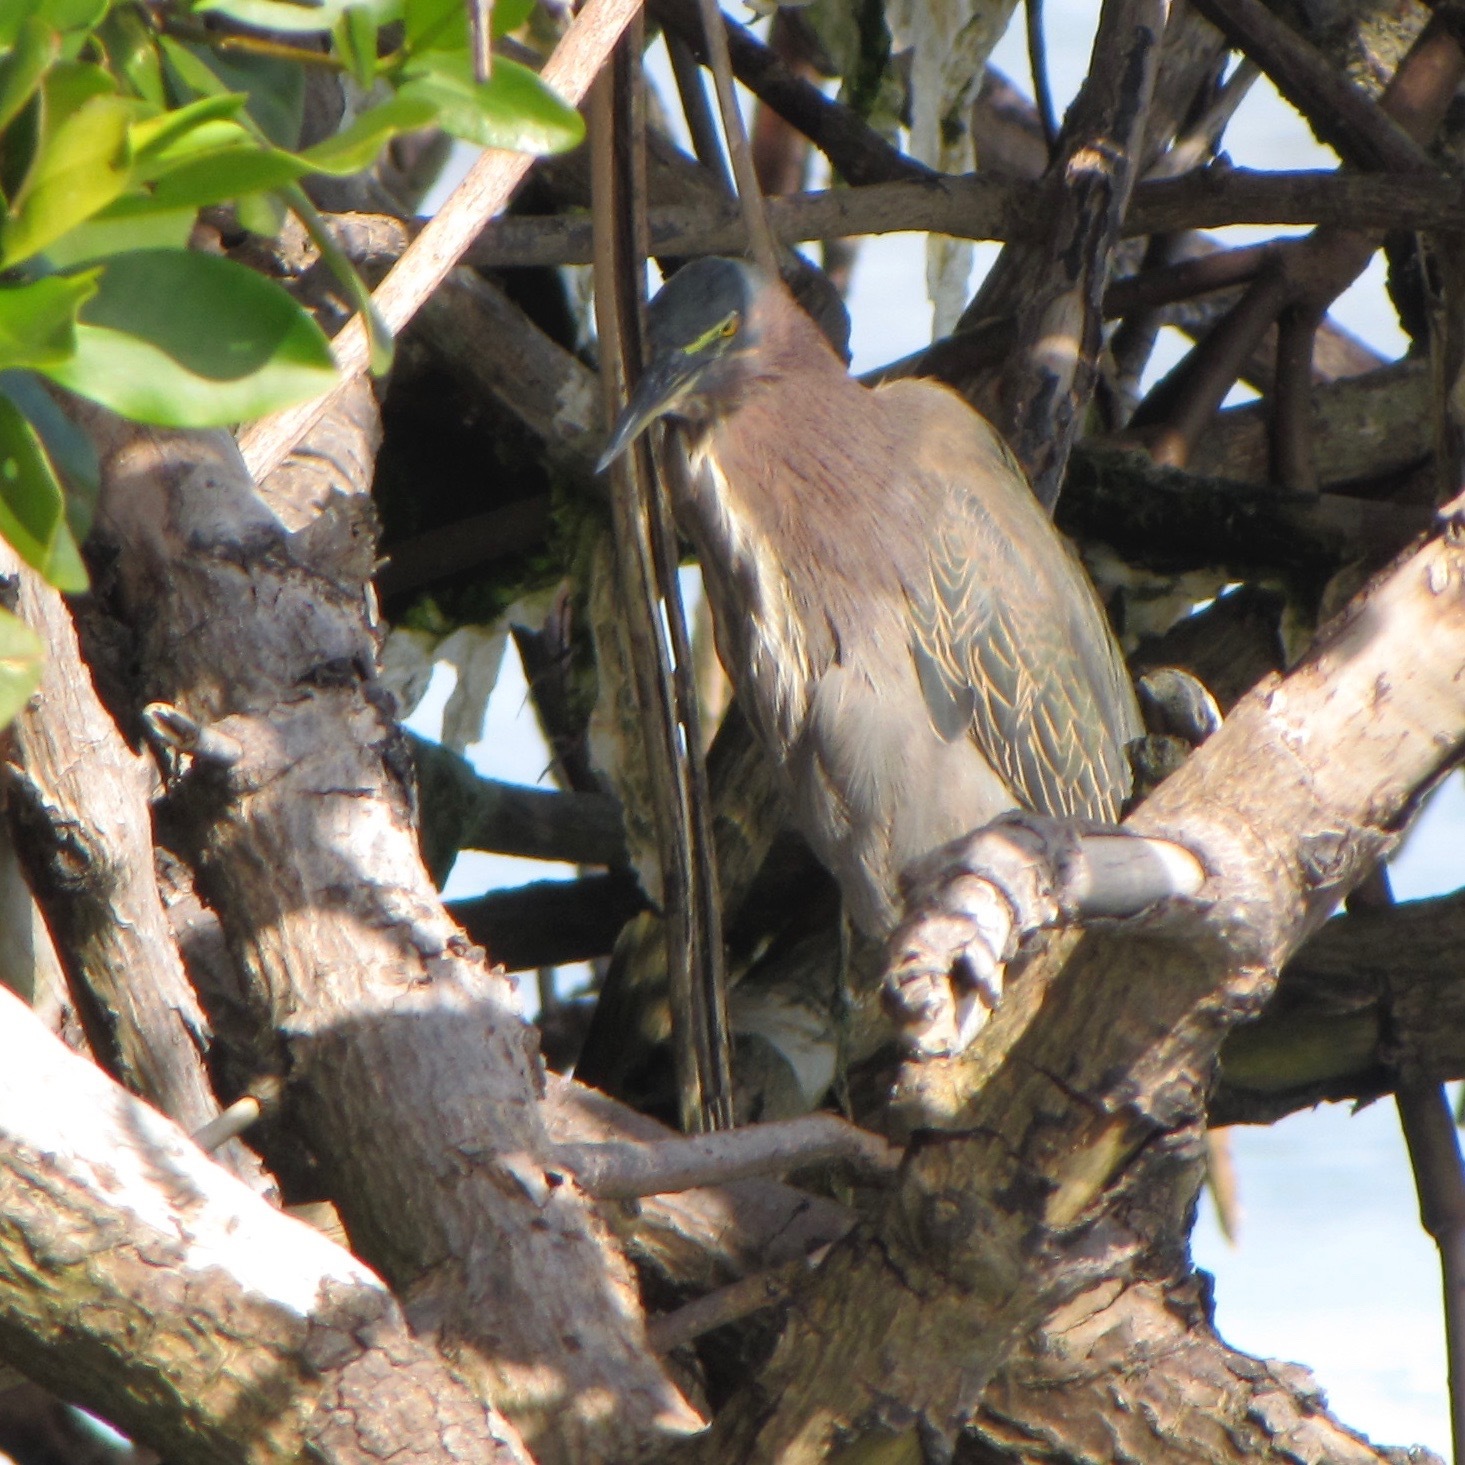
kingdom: Animalia
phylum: Chordata
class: Aves
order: Pelecaniformes
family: Ardeidae
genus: Butorides
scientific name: Butorides virescens
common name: Green heron
